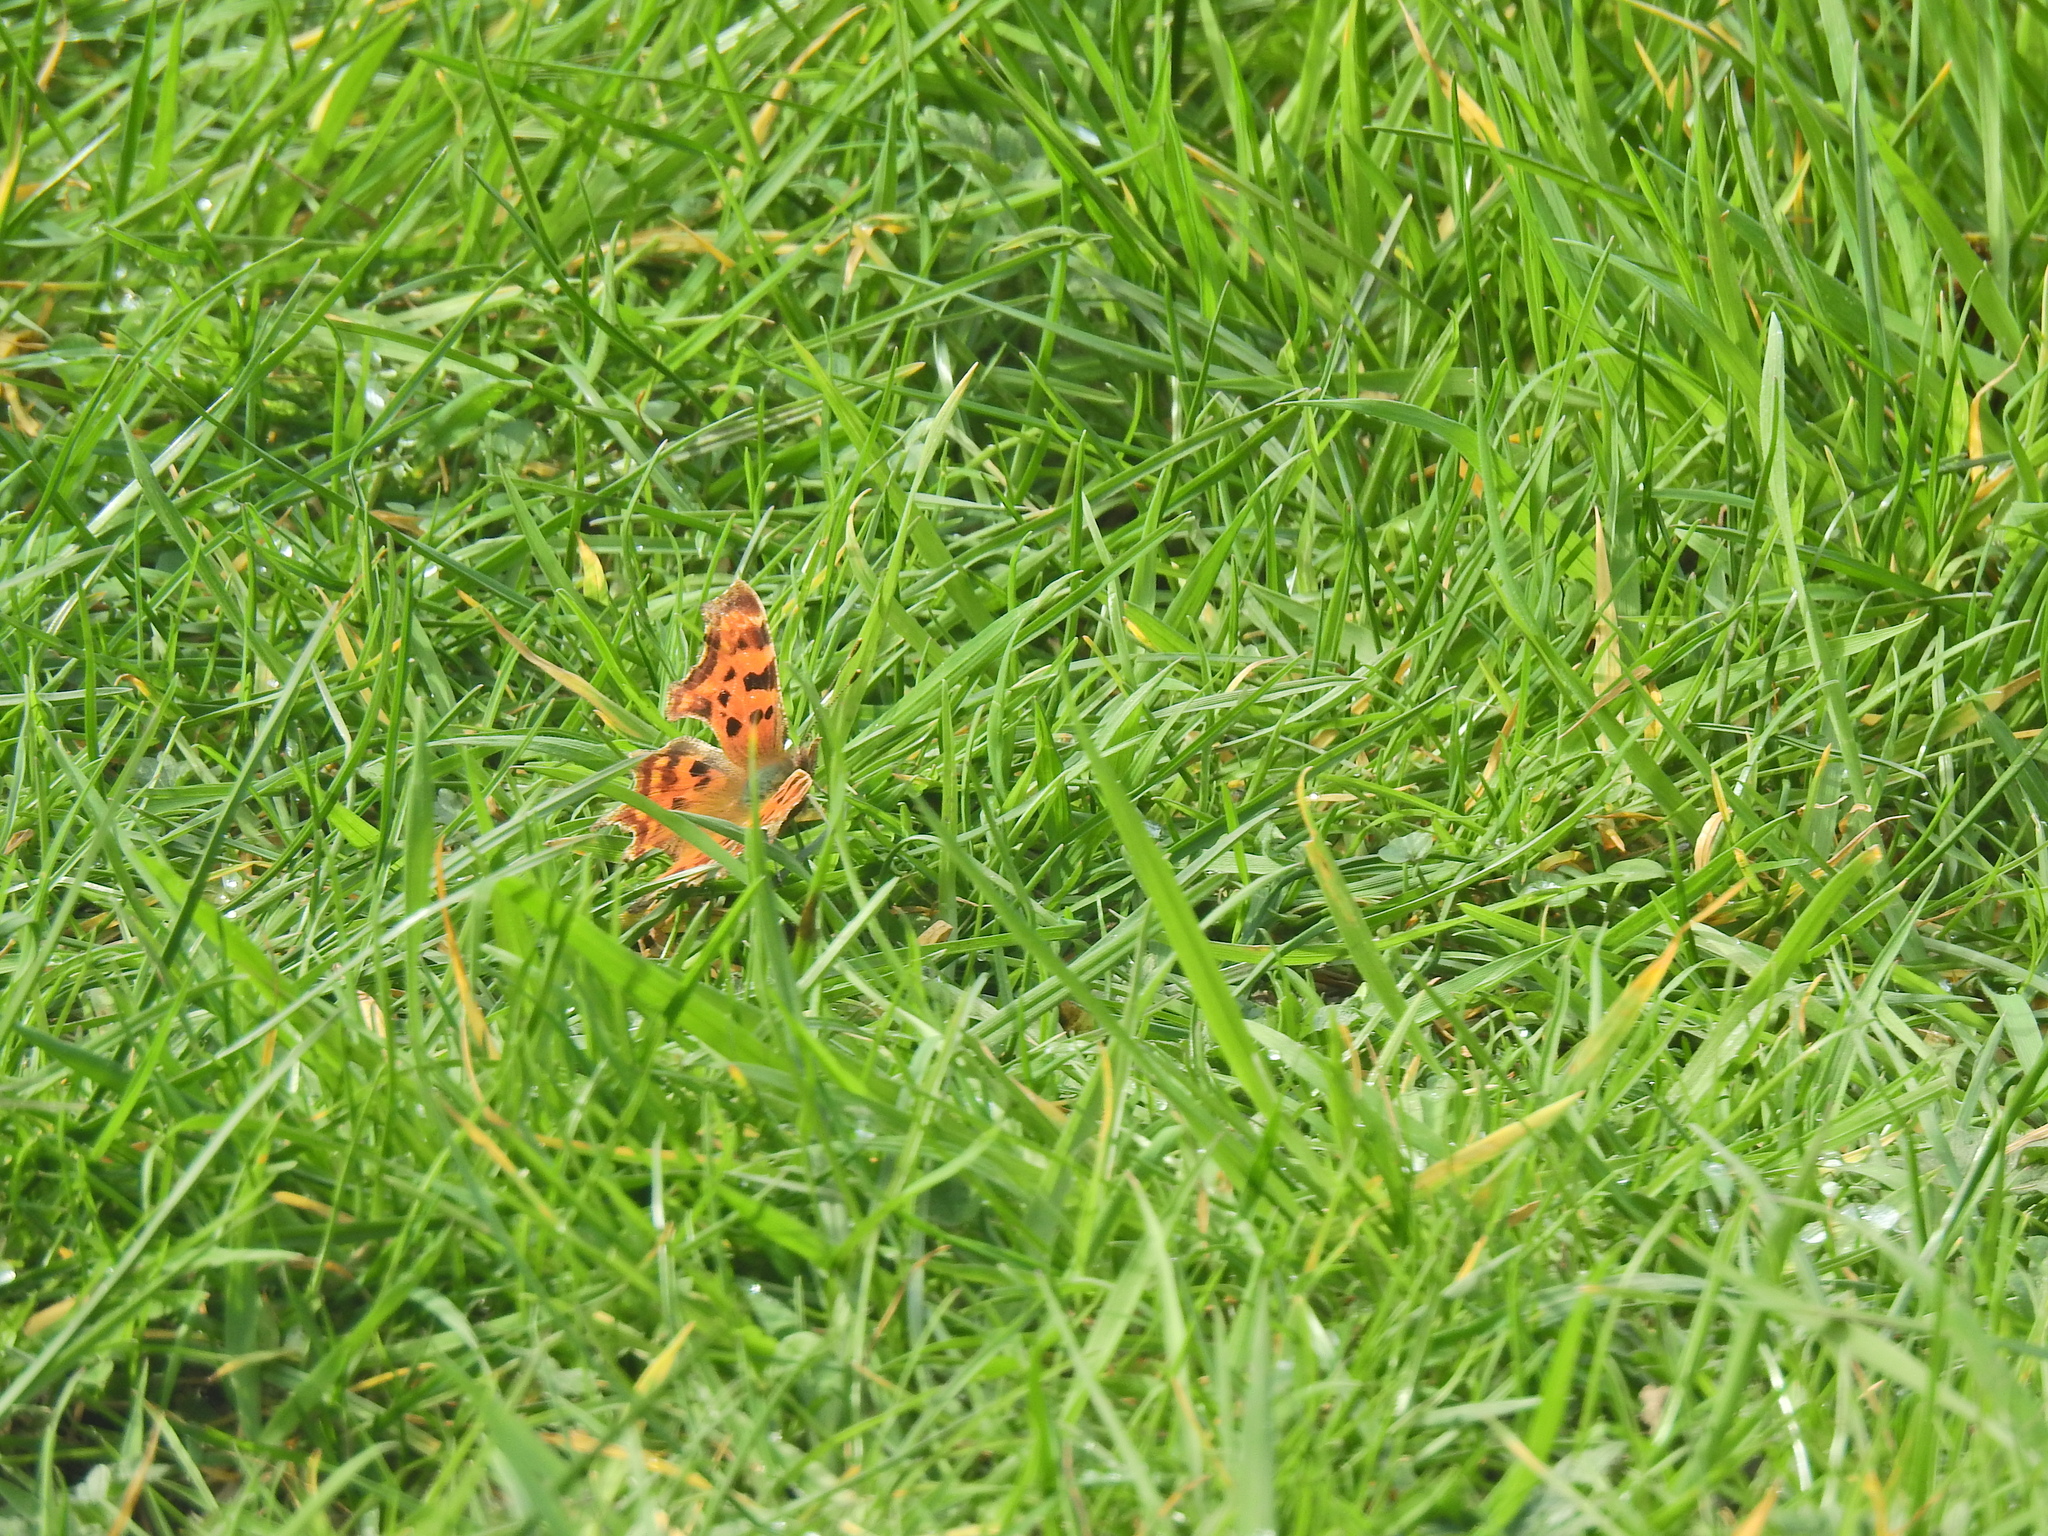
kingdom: Animalia
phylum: Arthropoda
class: Insecta
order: Lepidoptera
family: Nymphalidae
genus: Polygonia
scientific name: Polygonia c-album
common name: Comma
